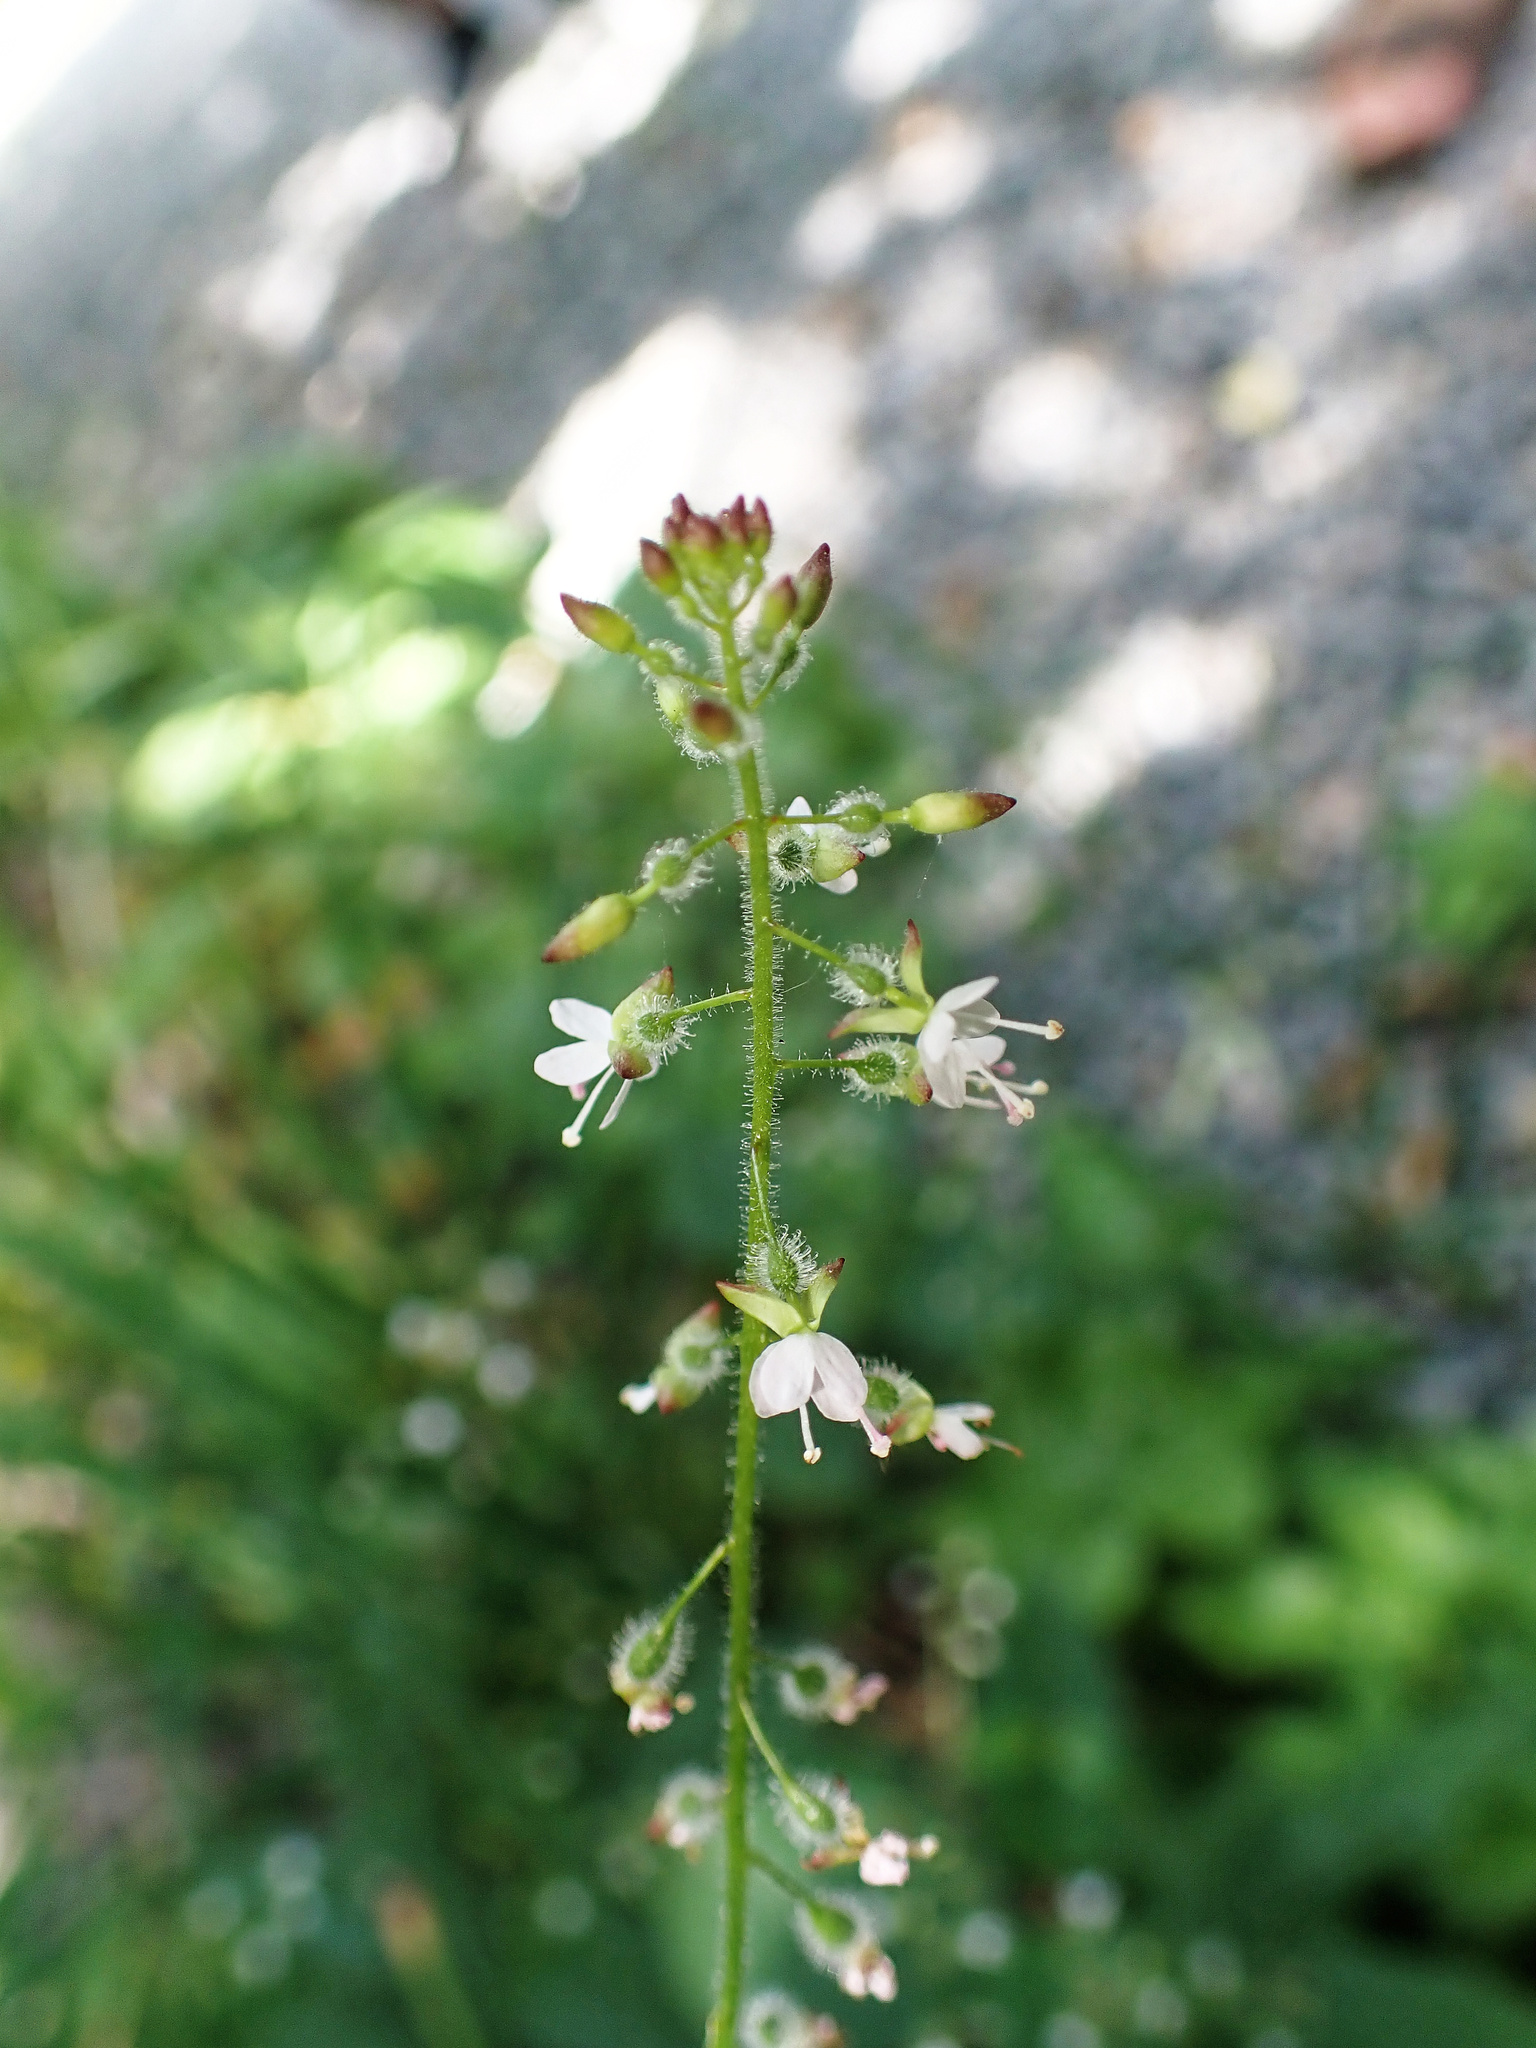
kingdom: Plantae
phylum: Tracheophyta
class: Magnoliopsida
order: Myrtales
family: Onagraceae
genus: Circaea
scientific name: Circaea lutetiana
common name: Enchanter's-nightshade
